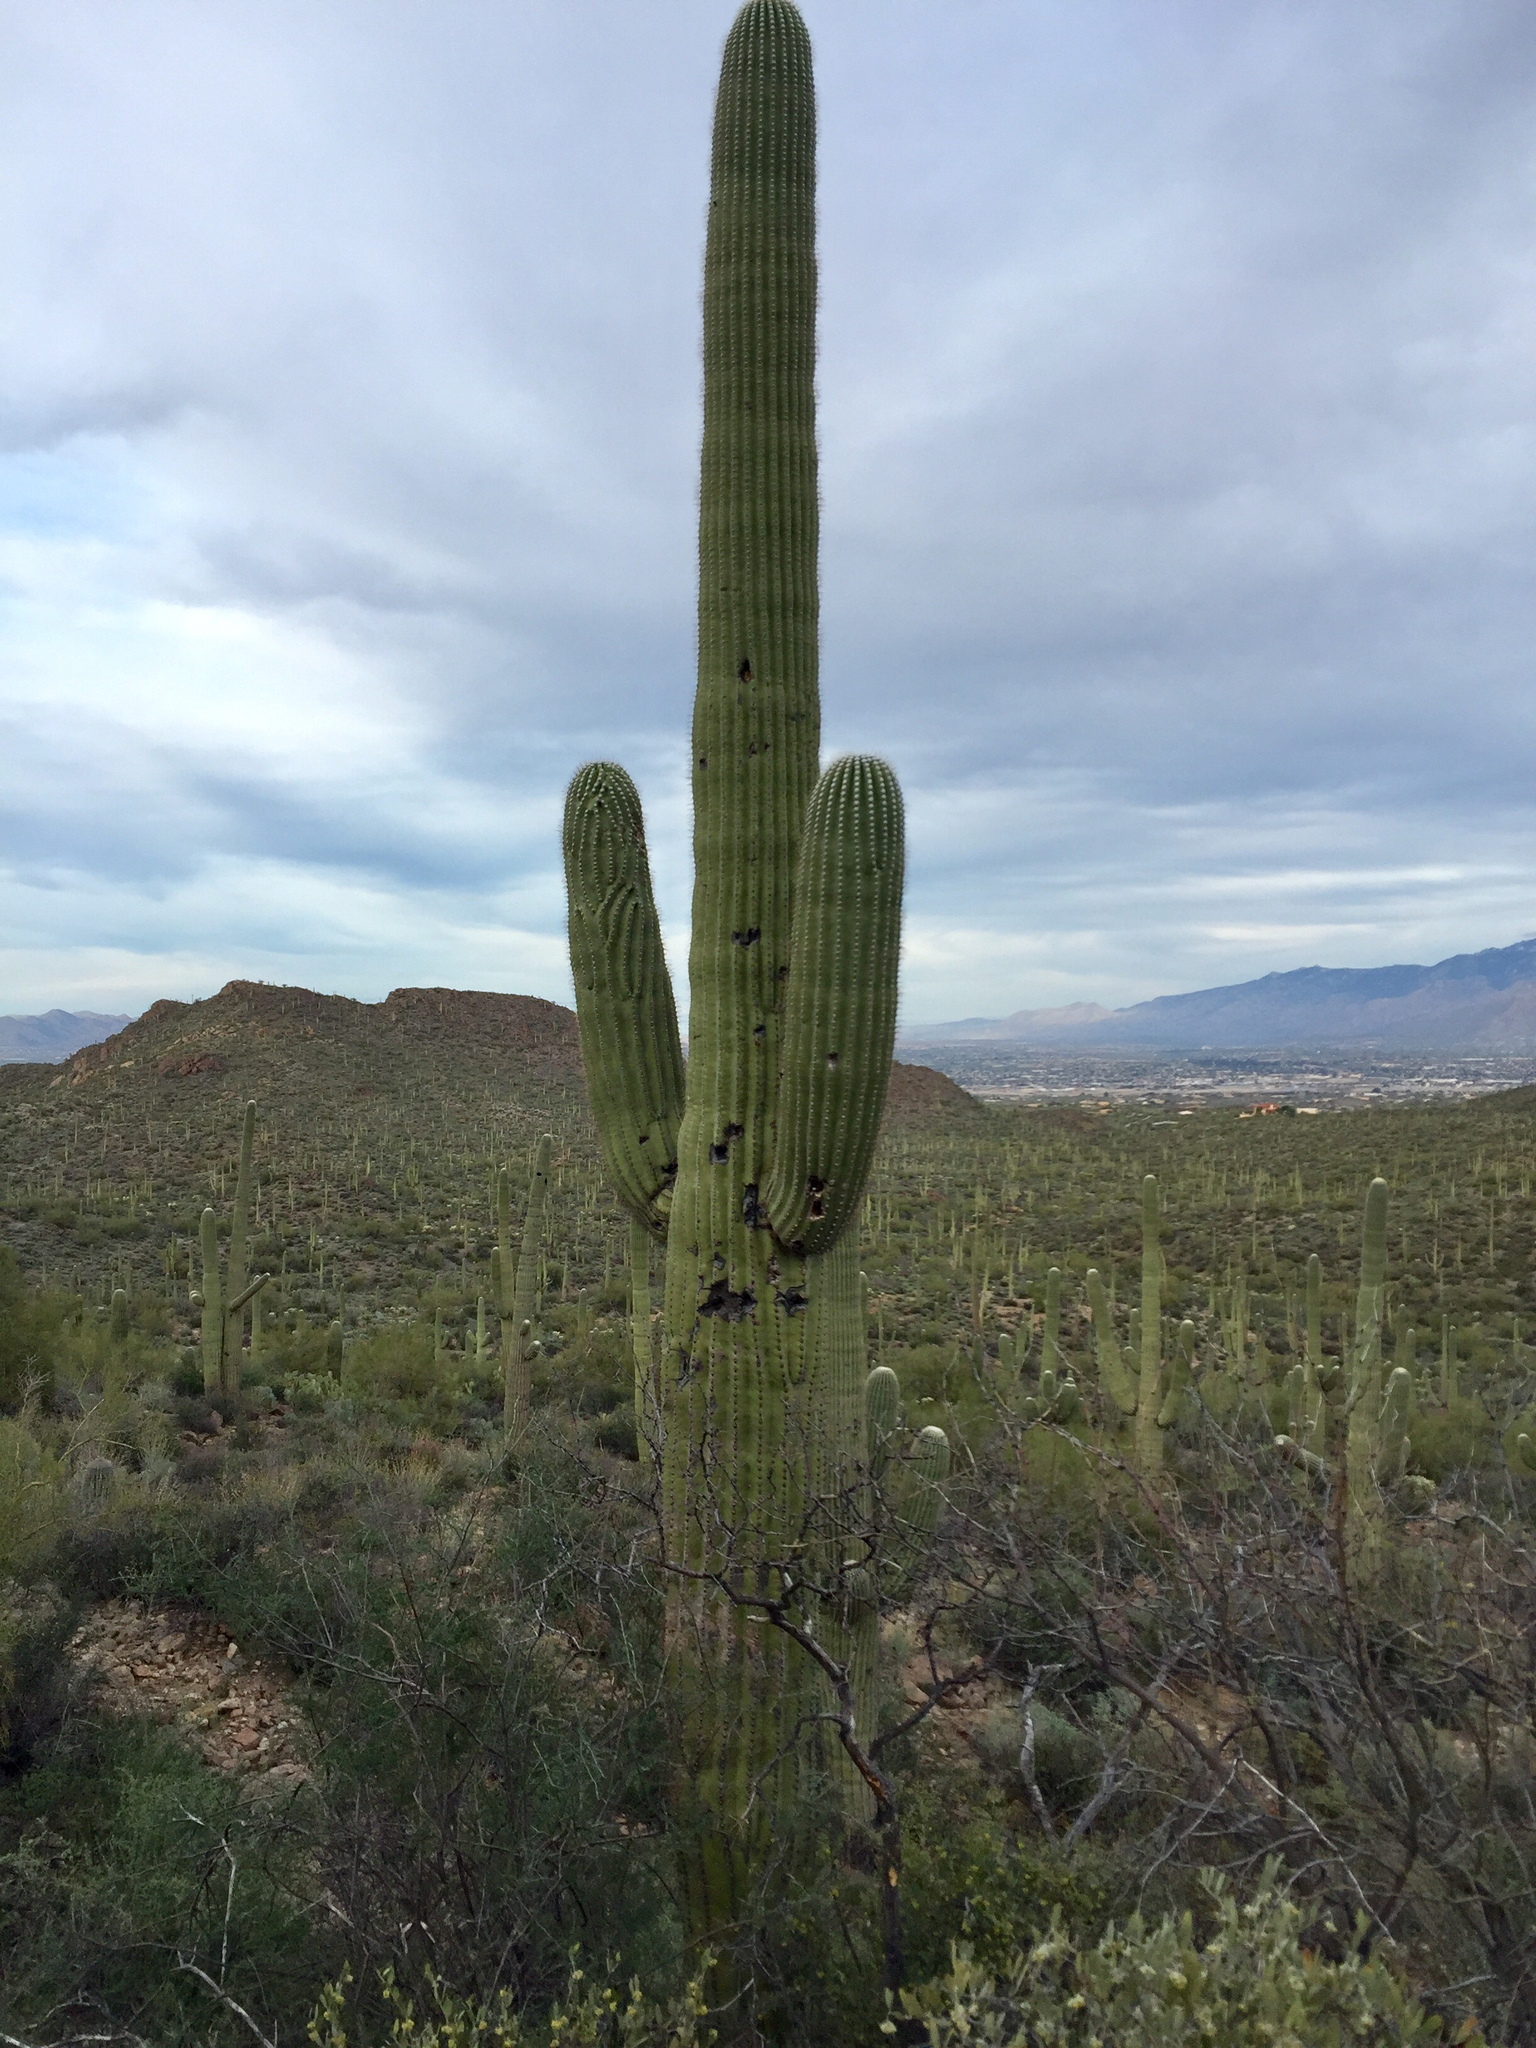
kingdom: Plantae
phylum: Tracheophyta
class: Magnoliopsida
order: Caryophyllales
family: Cactaceae
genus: Carnegiea
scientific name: Carnegiea gigantea
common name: Saguaro
